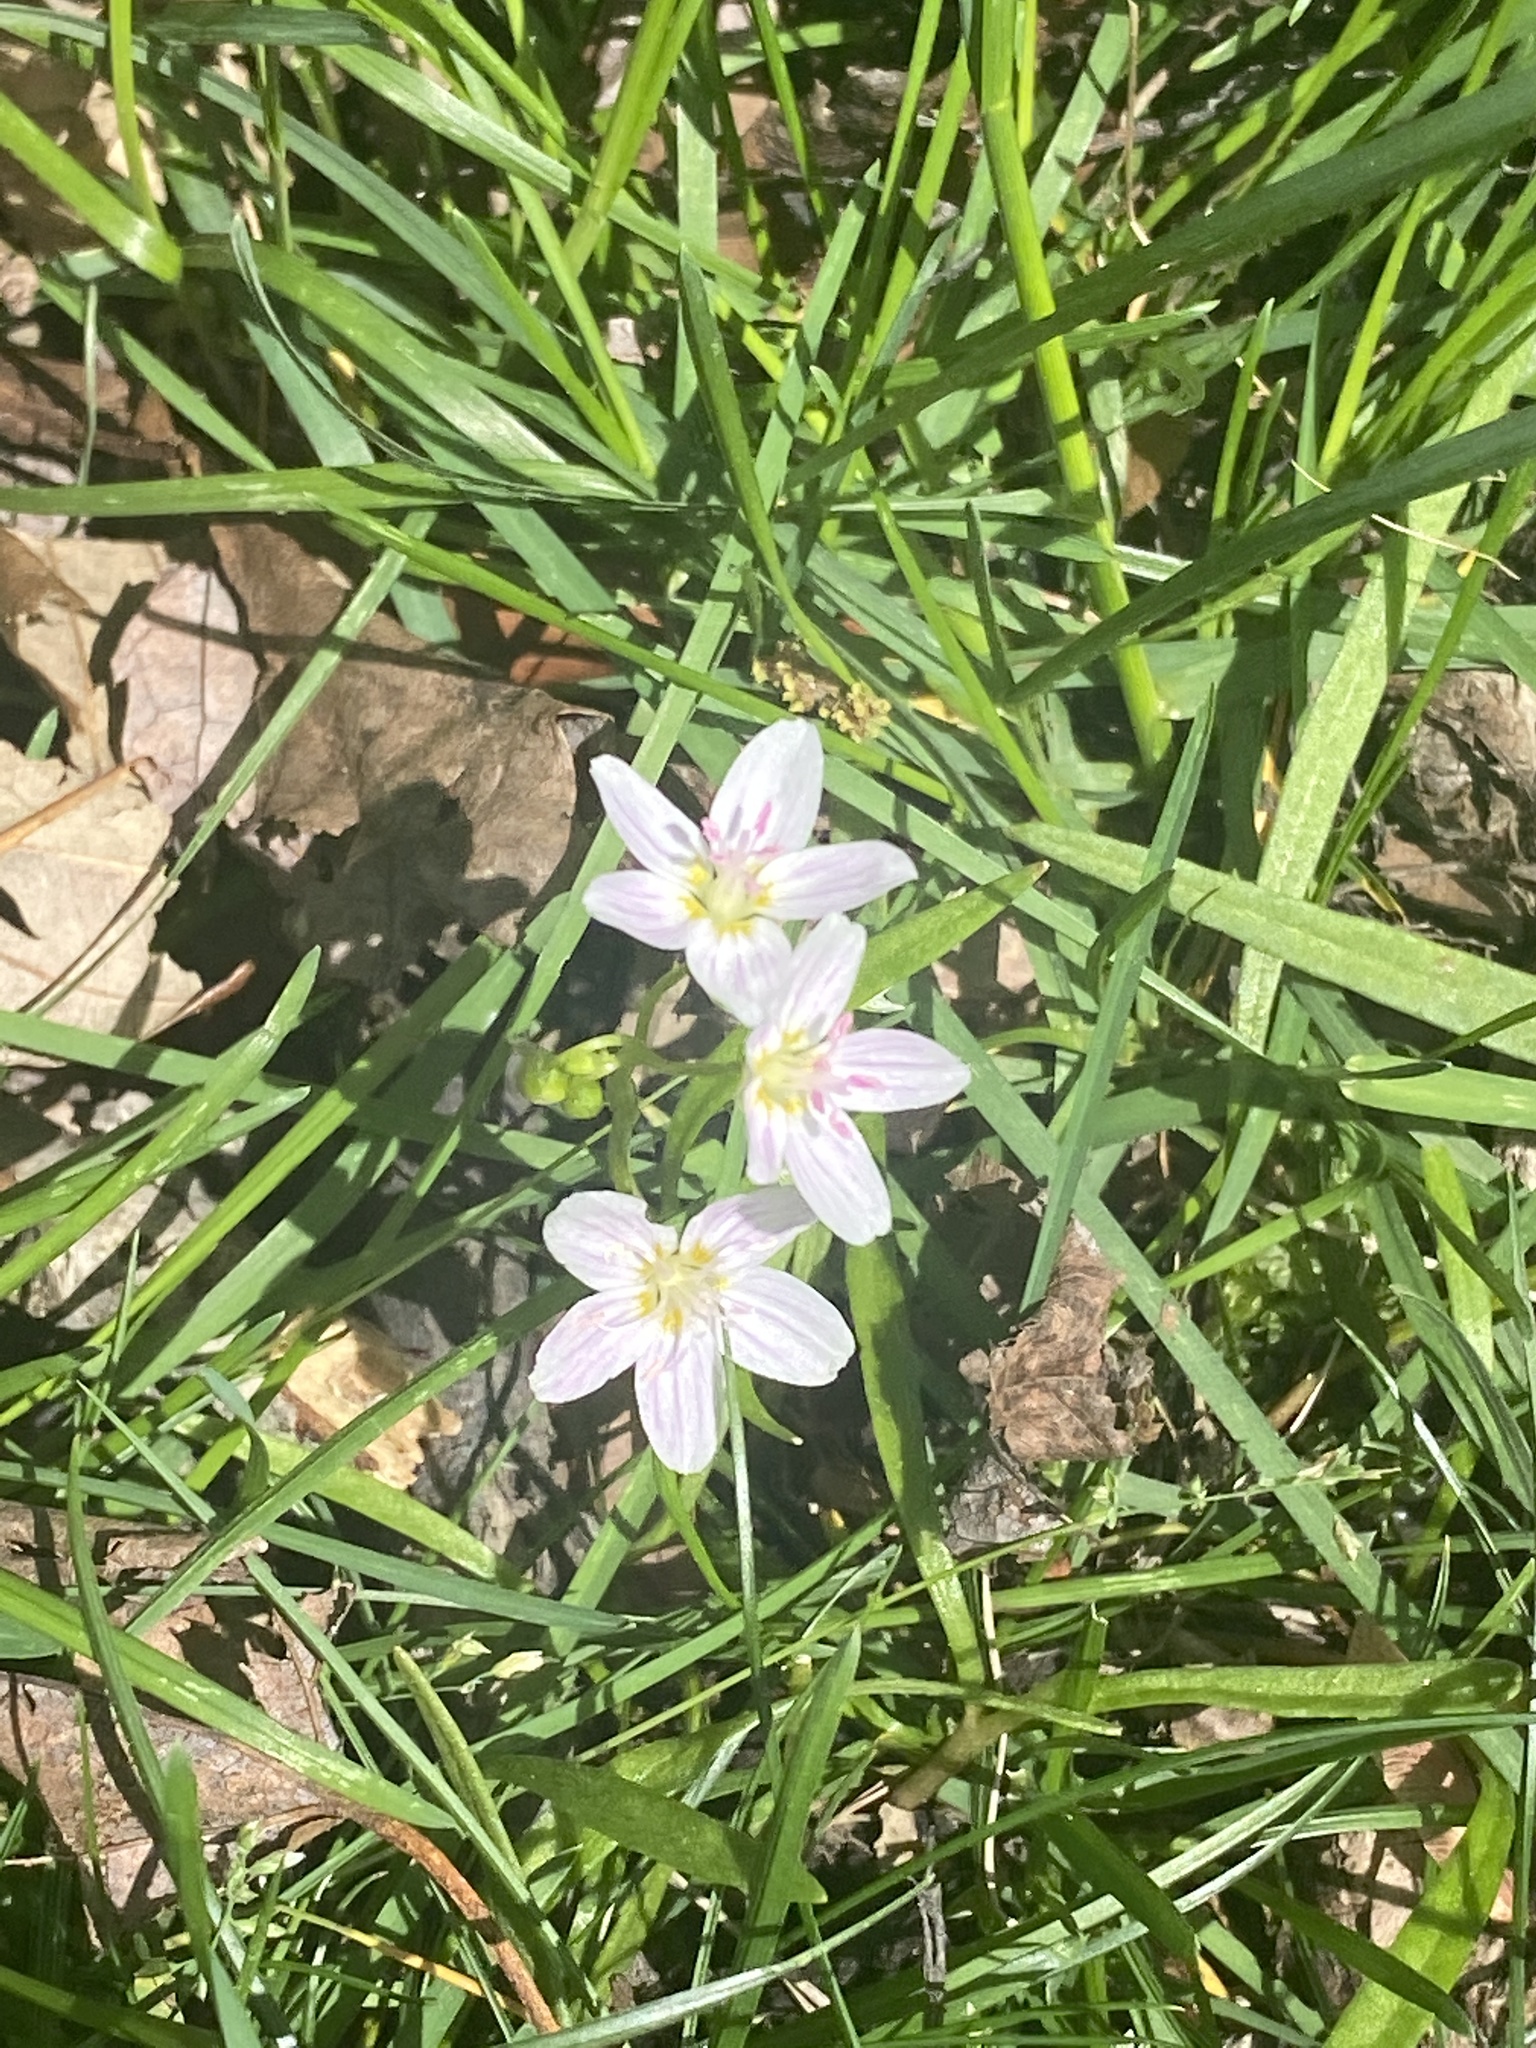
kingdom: Plantae
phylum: Tracheophyta
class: Magnoliopsida
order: Caryophyllales
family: Montiaceae
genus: Claytonia
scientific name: Claytonia virginica
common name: Virginia springbeauty
